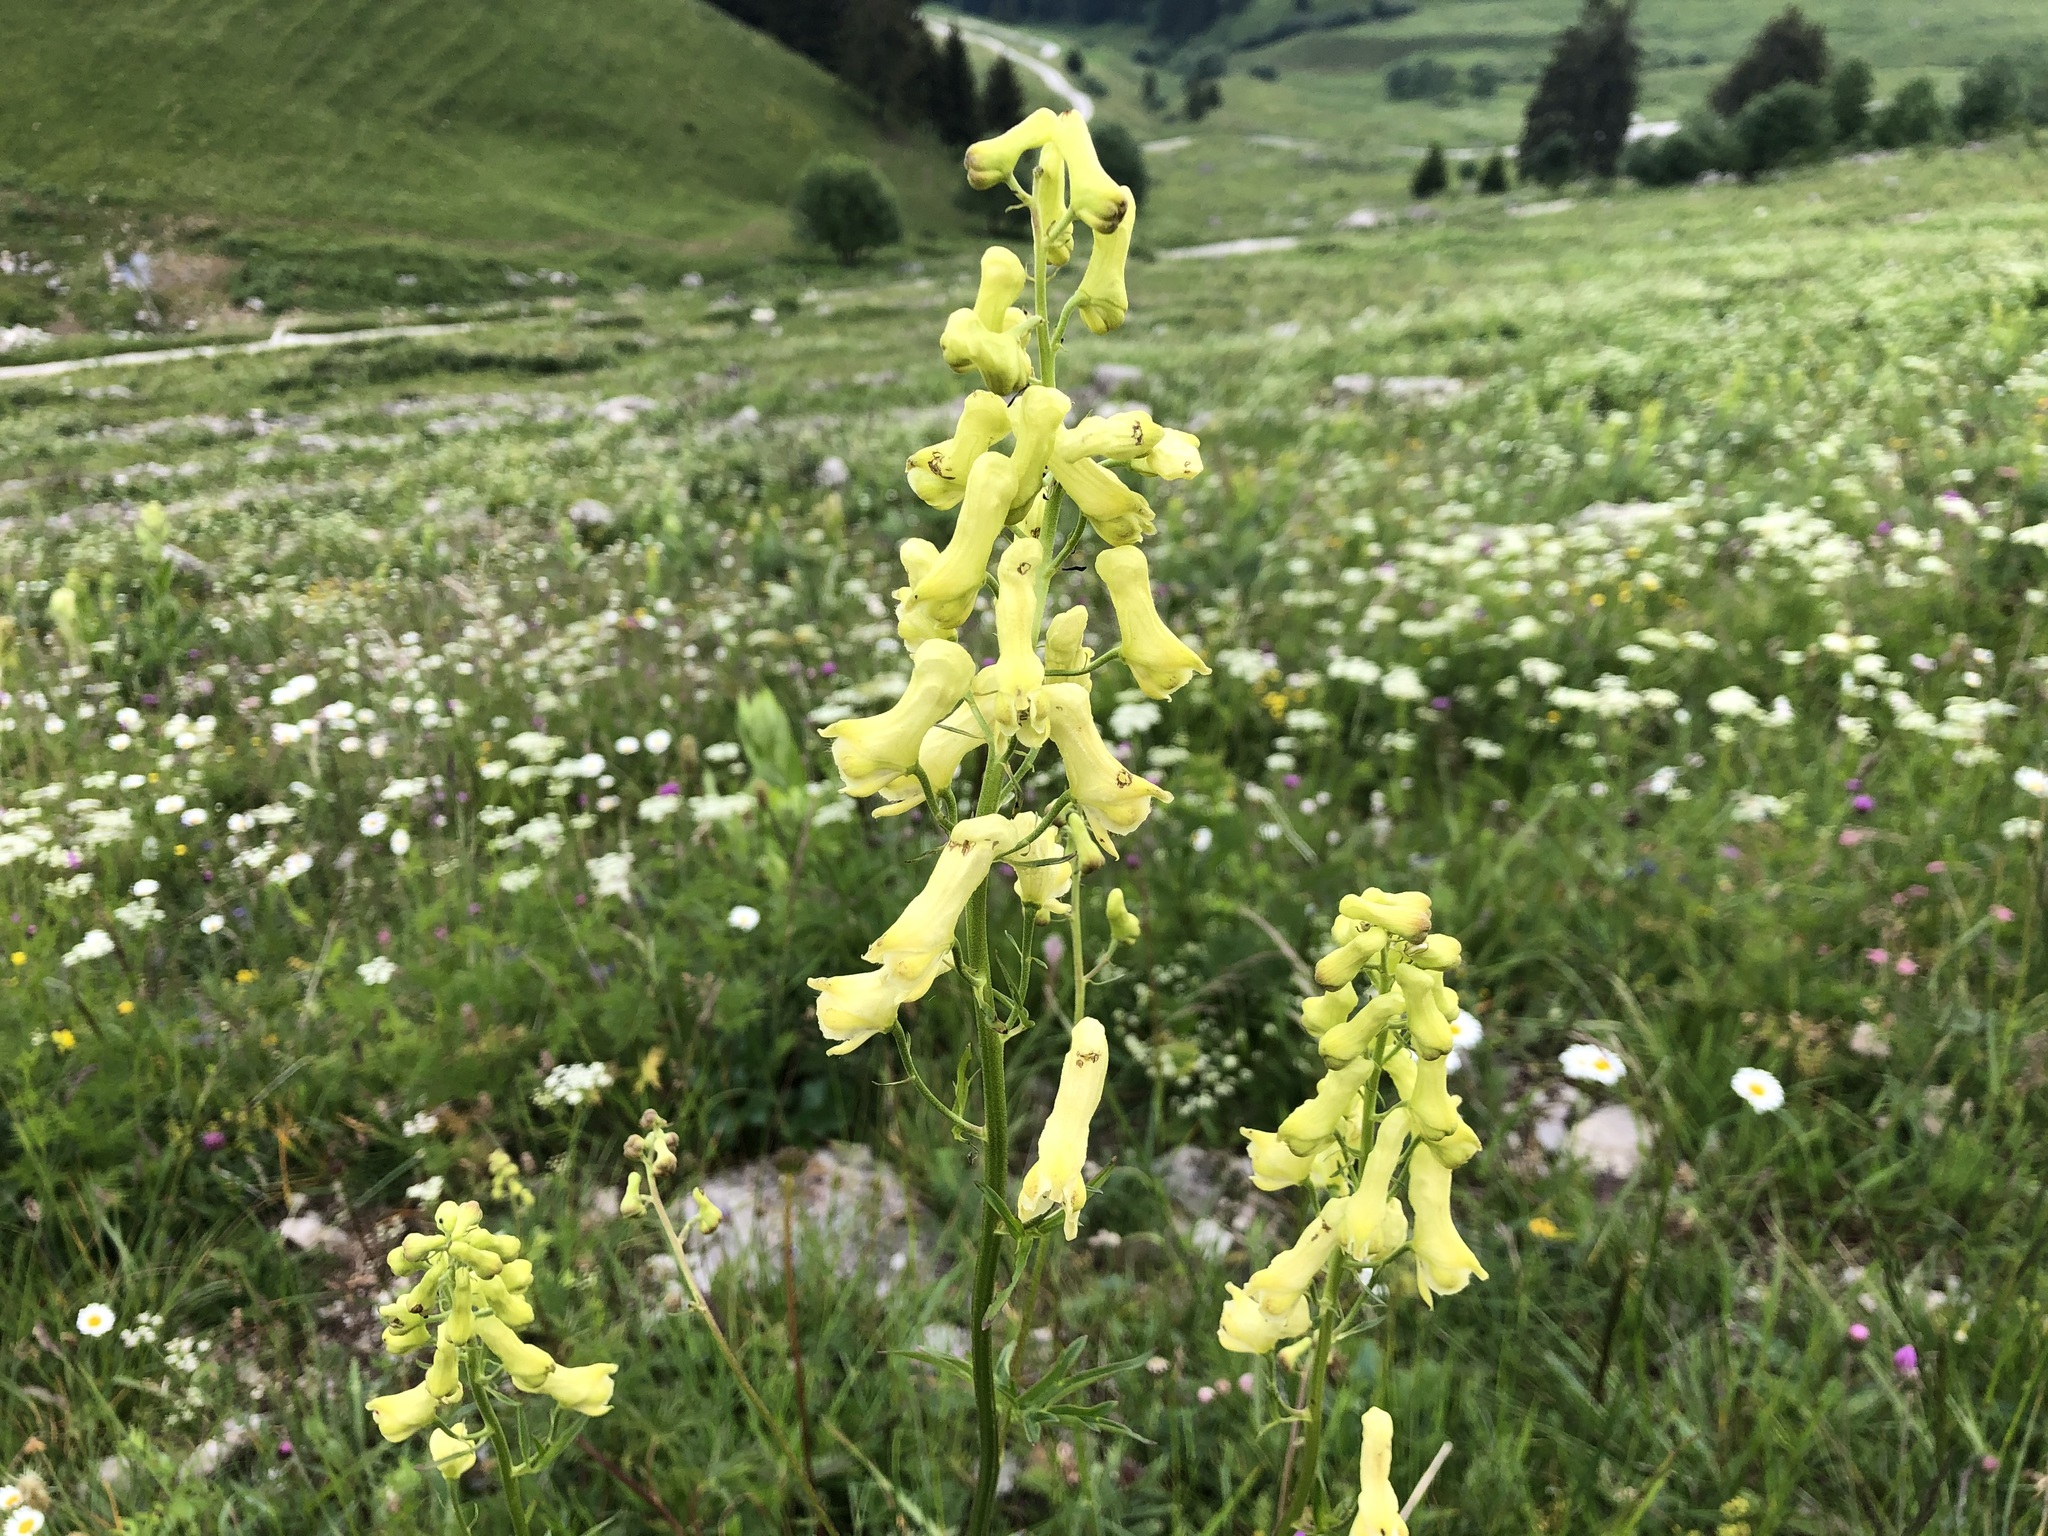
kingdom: Plantae
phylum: Tracheophyta
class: Magnoliopsida
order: Ranunculales
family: Ranunculaceae
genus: Aconitum
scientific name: Aconitum lycoctonum
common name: Wolf's-bane
